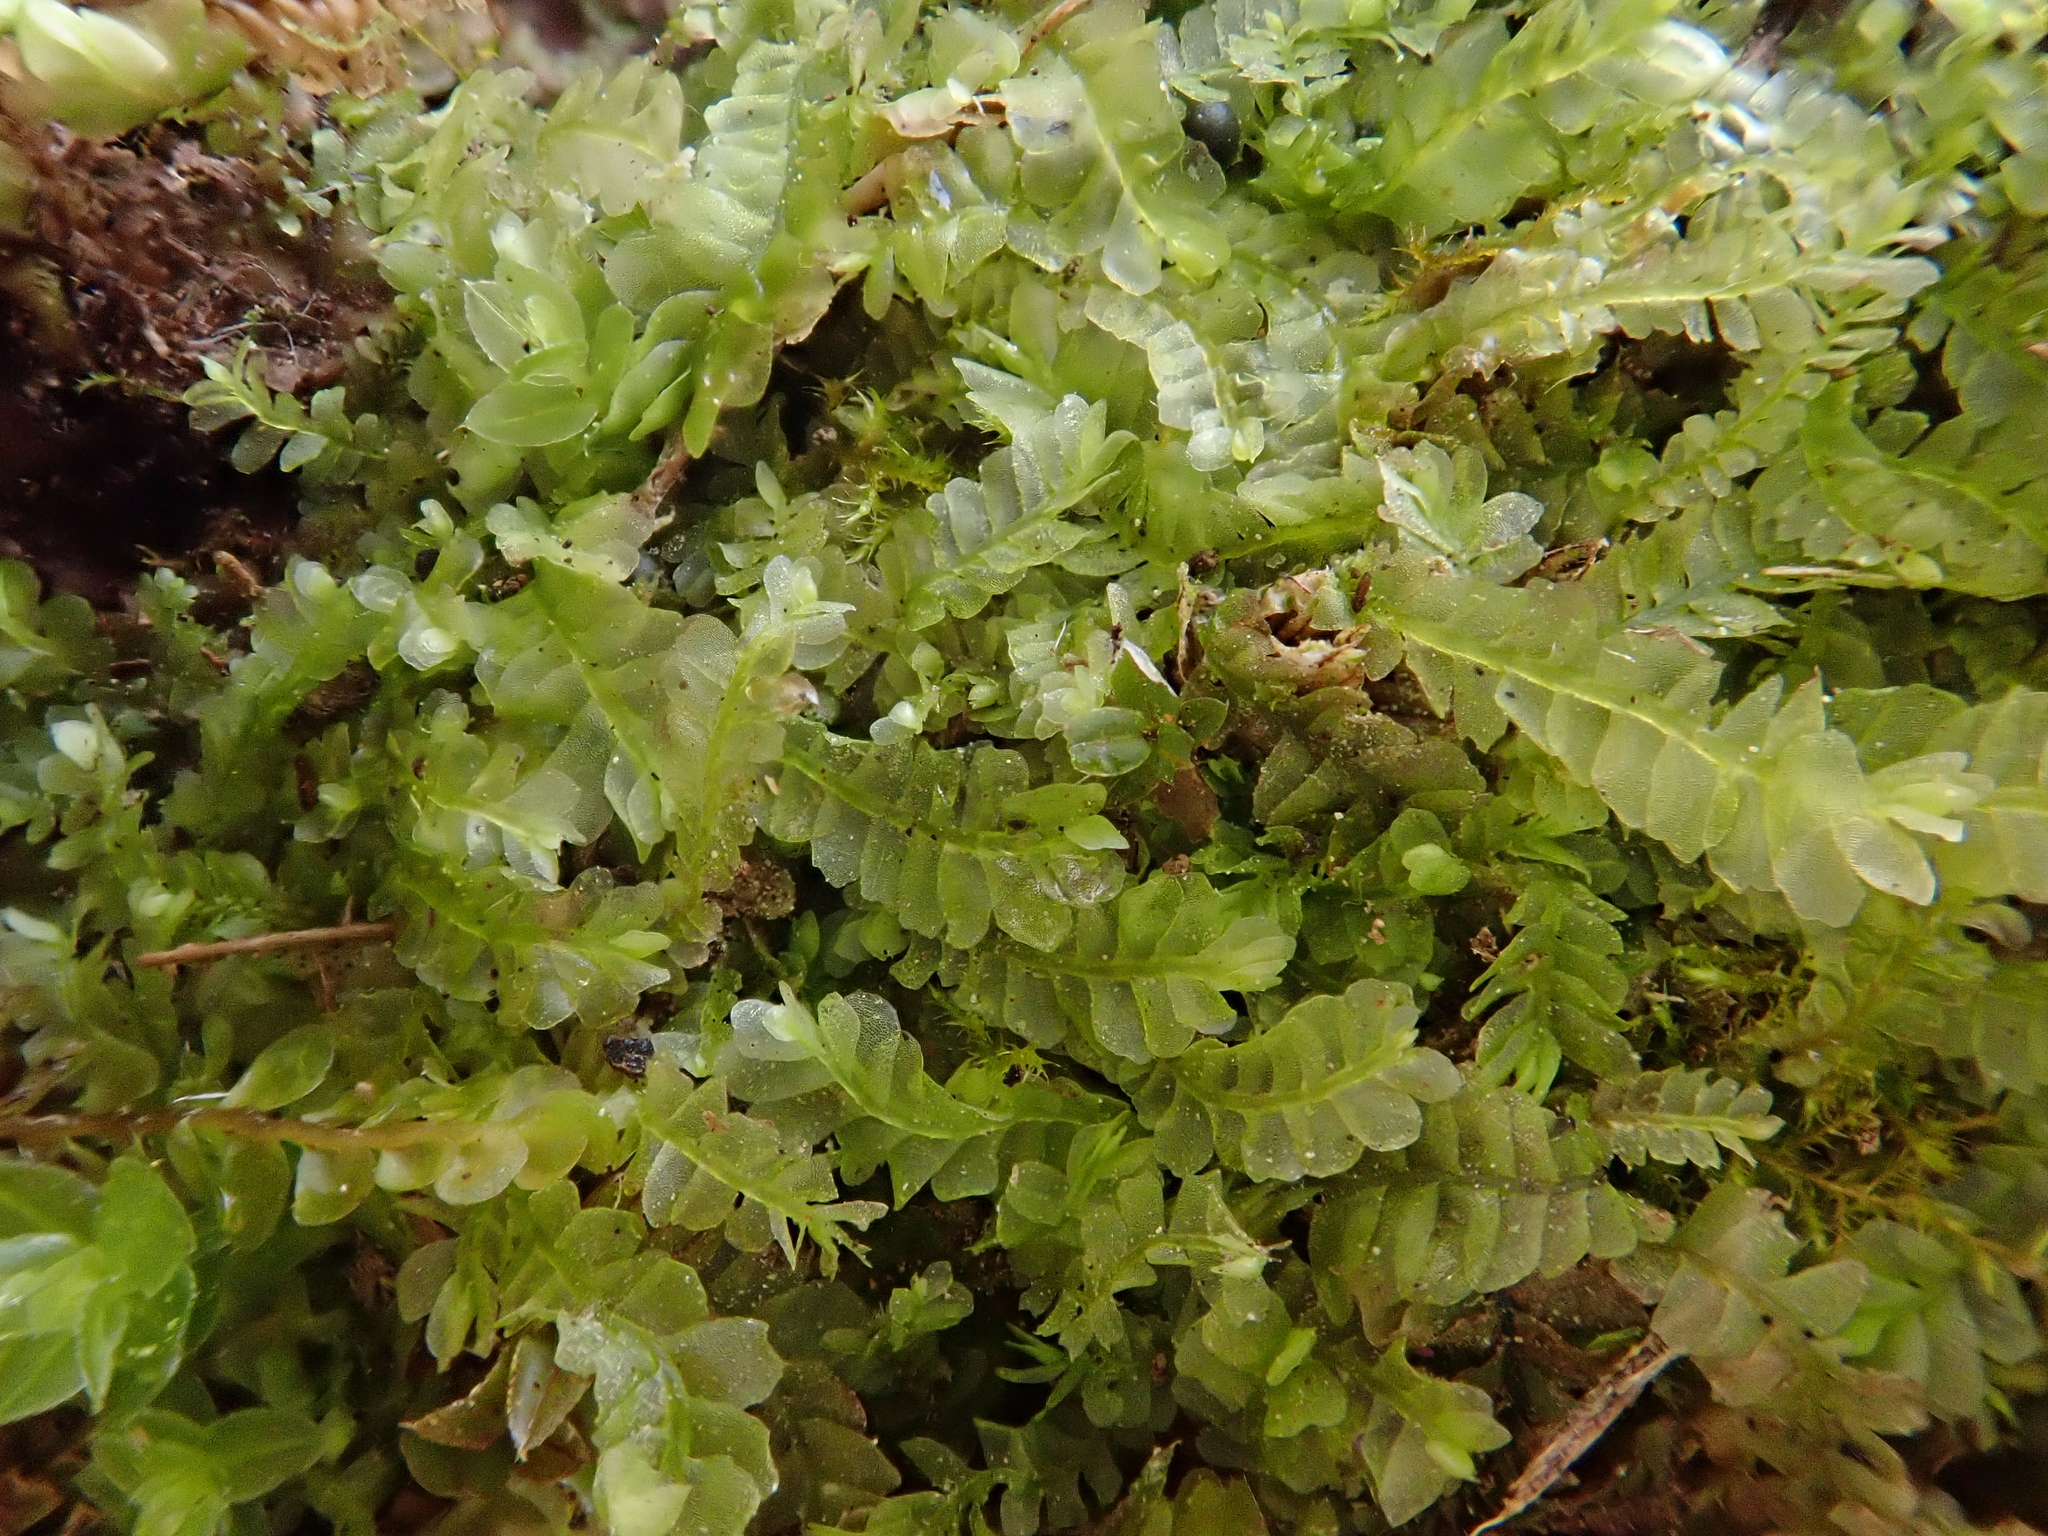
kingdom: Plantae
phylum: Marchantiophyta
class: Jungermanniopsida
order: Jungermanniales
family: Lophocoleaceae
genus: Chiloscyphus
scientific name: Chiloscyphus pallescens
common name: St winifrid's other moss
